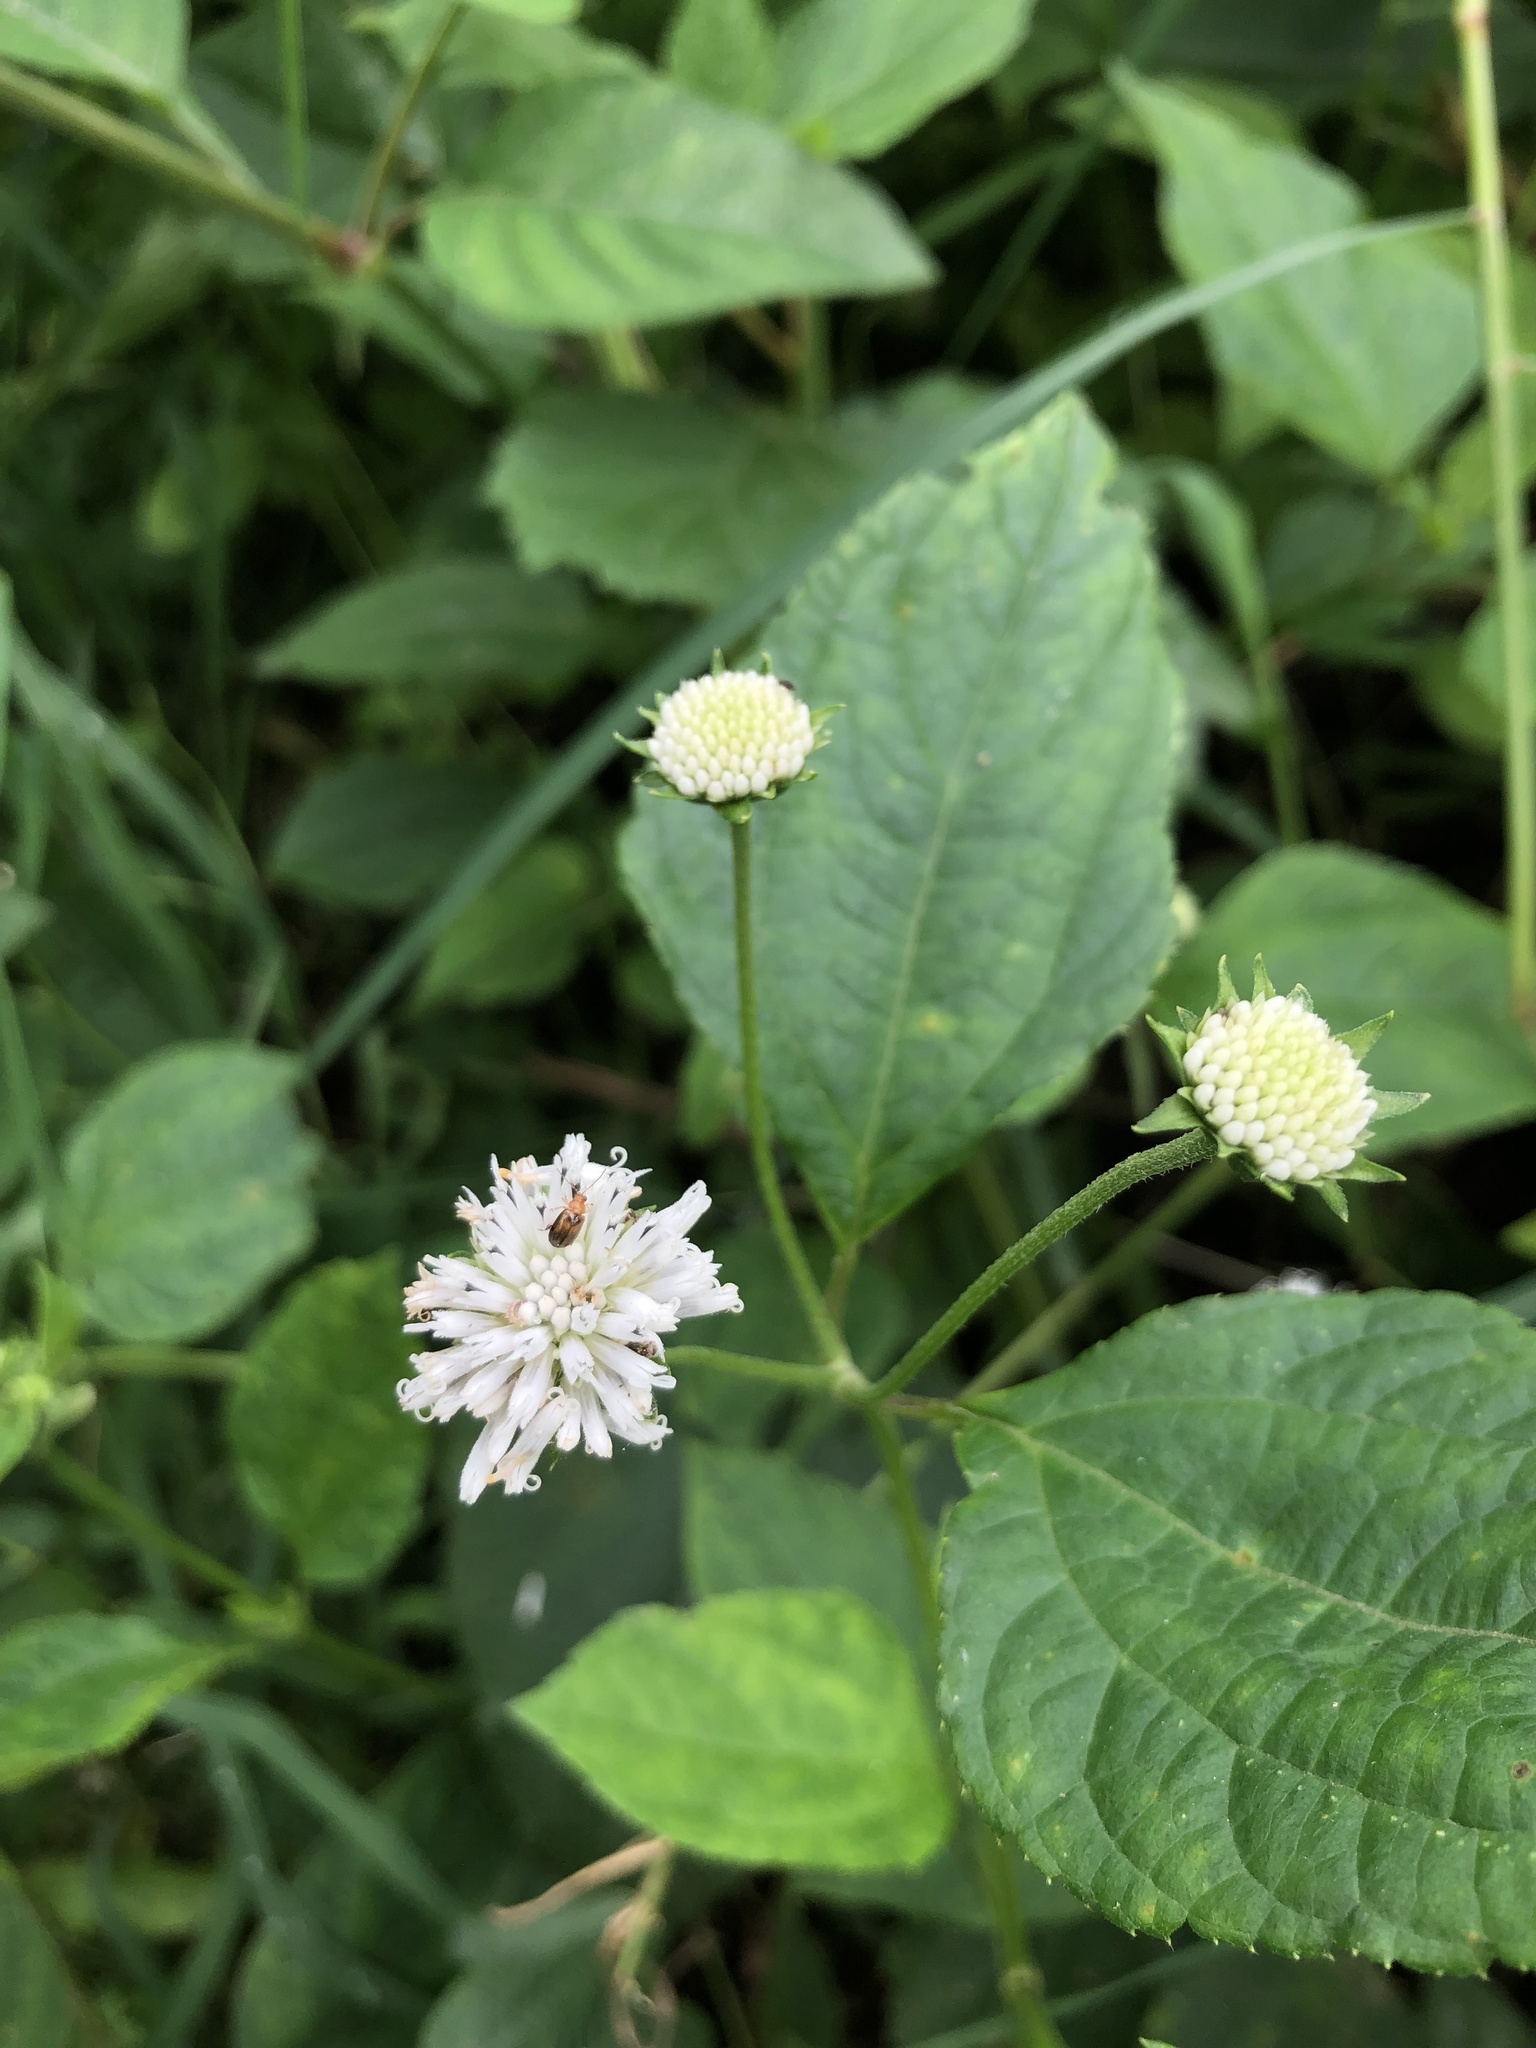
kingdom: Plantae
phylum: Tracheophyta
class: Magnoliopsida
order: Asterales
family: Asteraceae
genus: Melanthera
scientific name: Melanthera nivea
